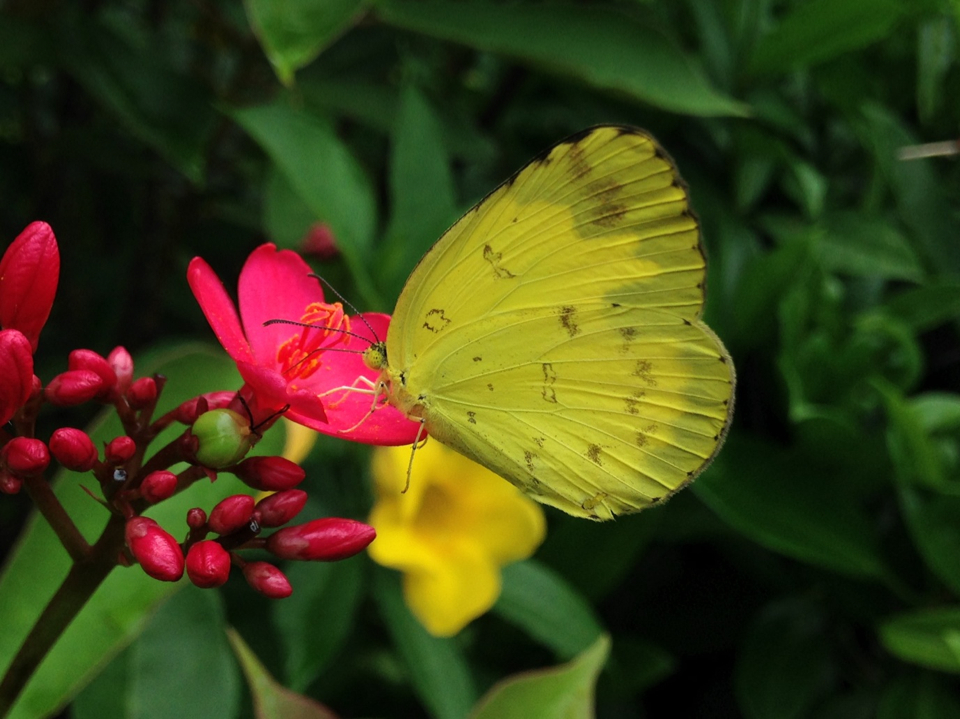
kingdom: Animalia
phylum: Arthropoda
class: Insecta
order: Lepidoptera
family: Pieridae
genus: Eurema
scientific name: Eurema hecabe
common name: Pale grass yellow
